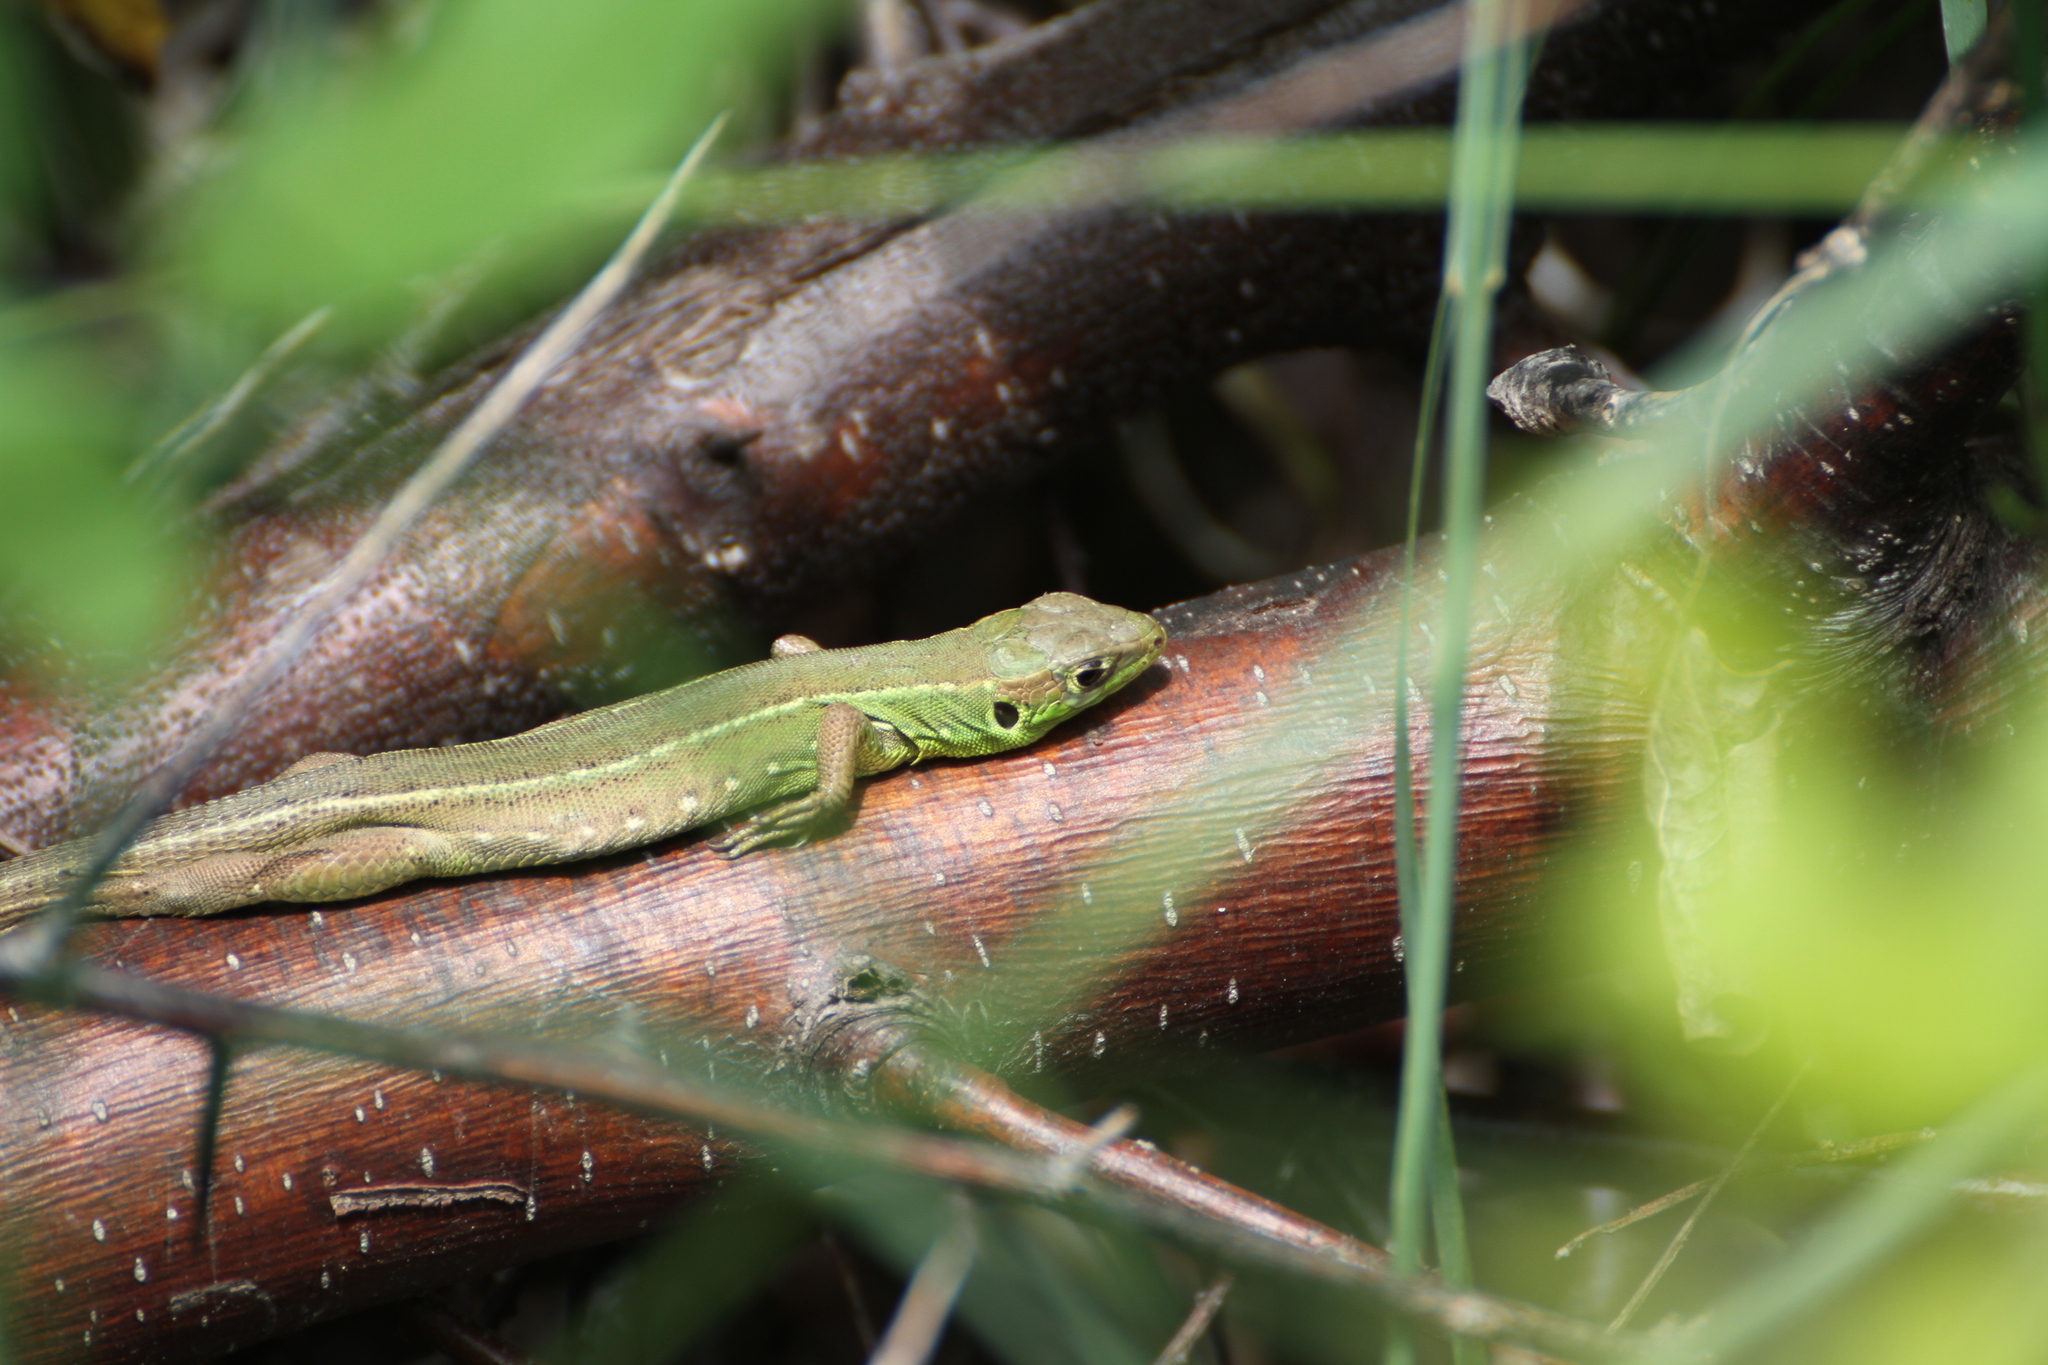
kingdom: Animalia
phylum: Chordata
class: Squamata
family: Lacertidae
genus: Lacerta
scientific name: Lacerta bilineata
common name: Western green lizard
